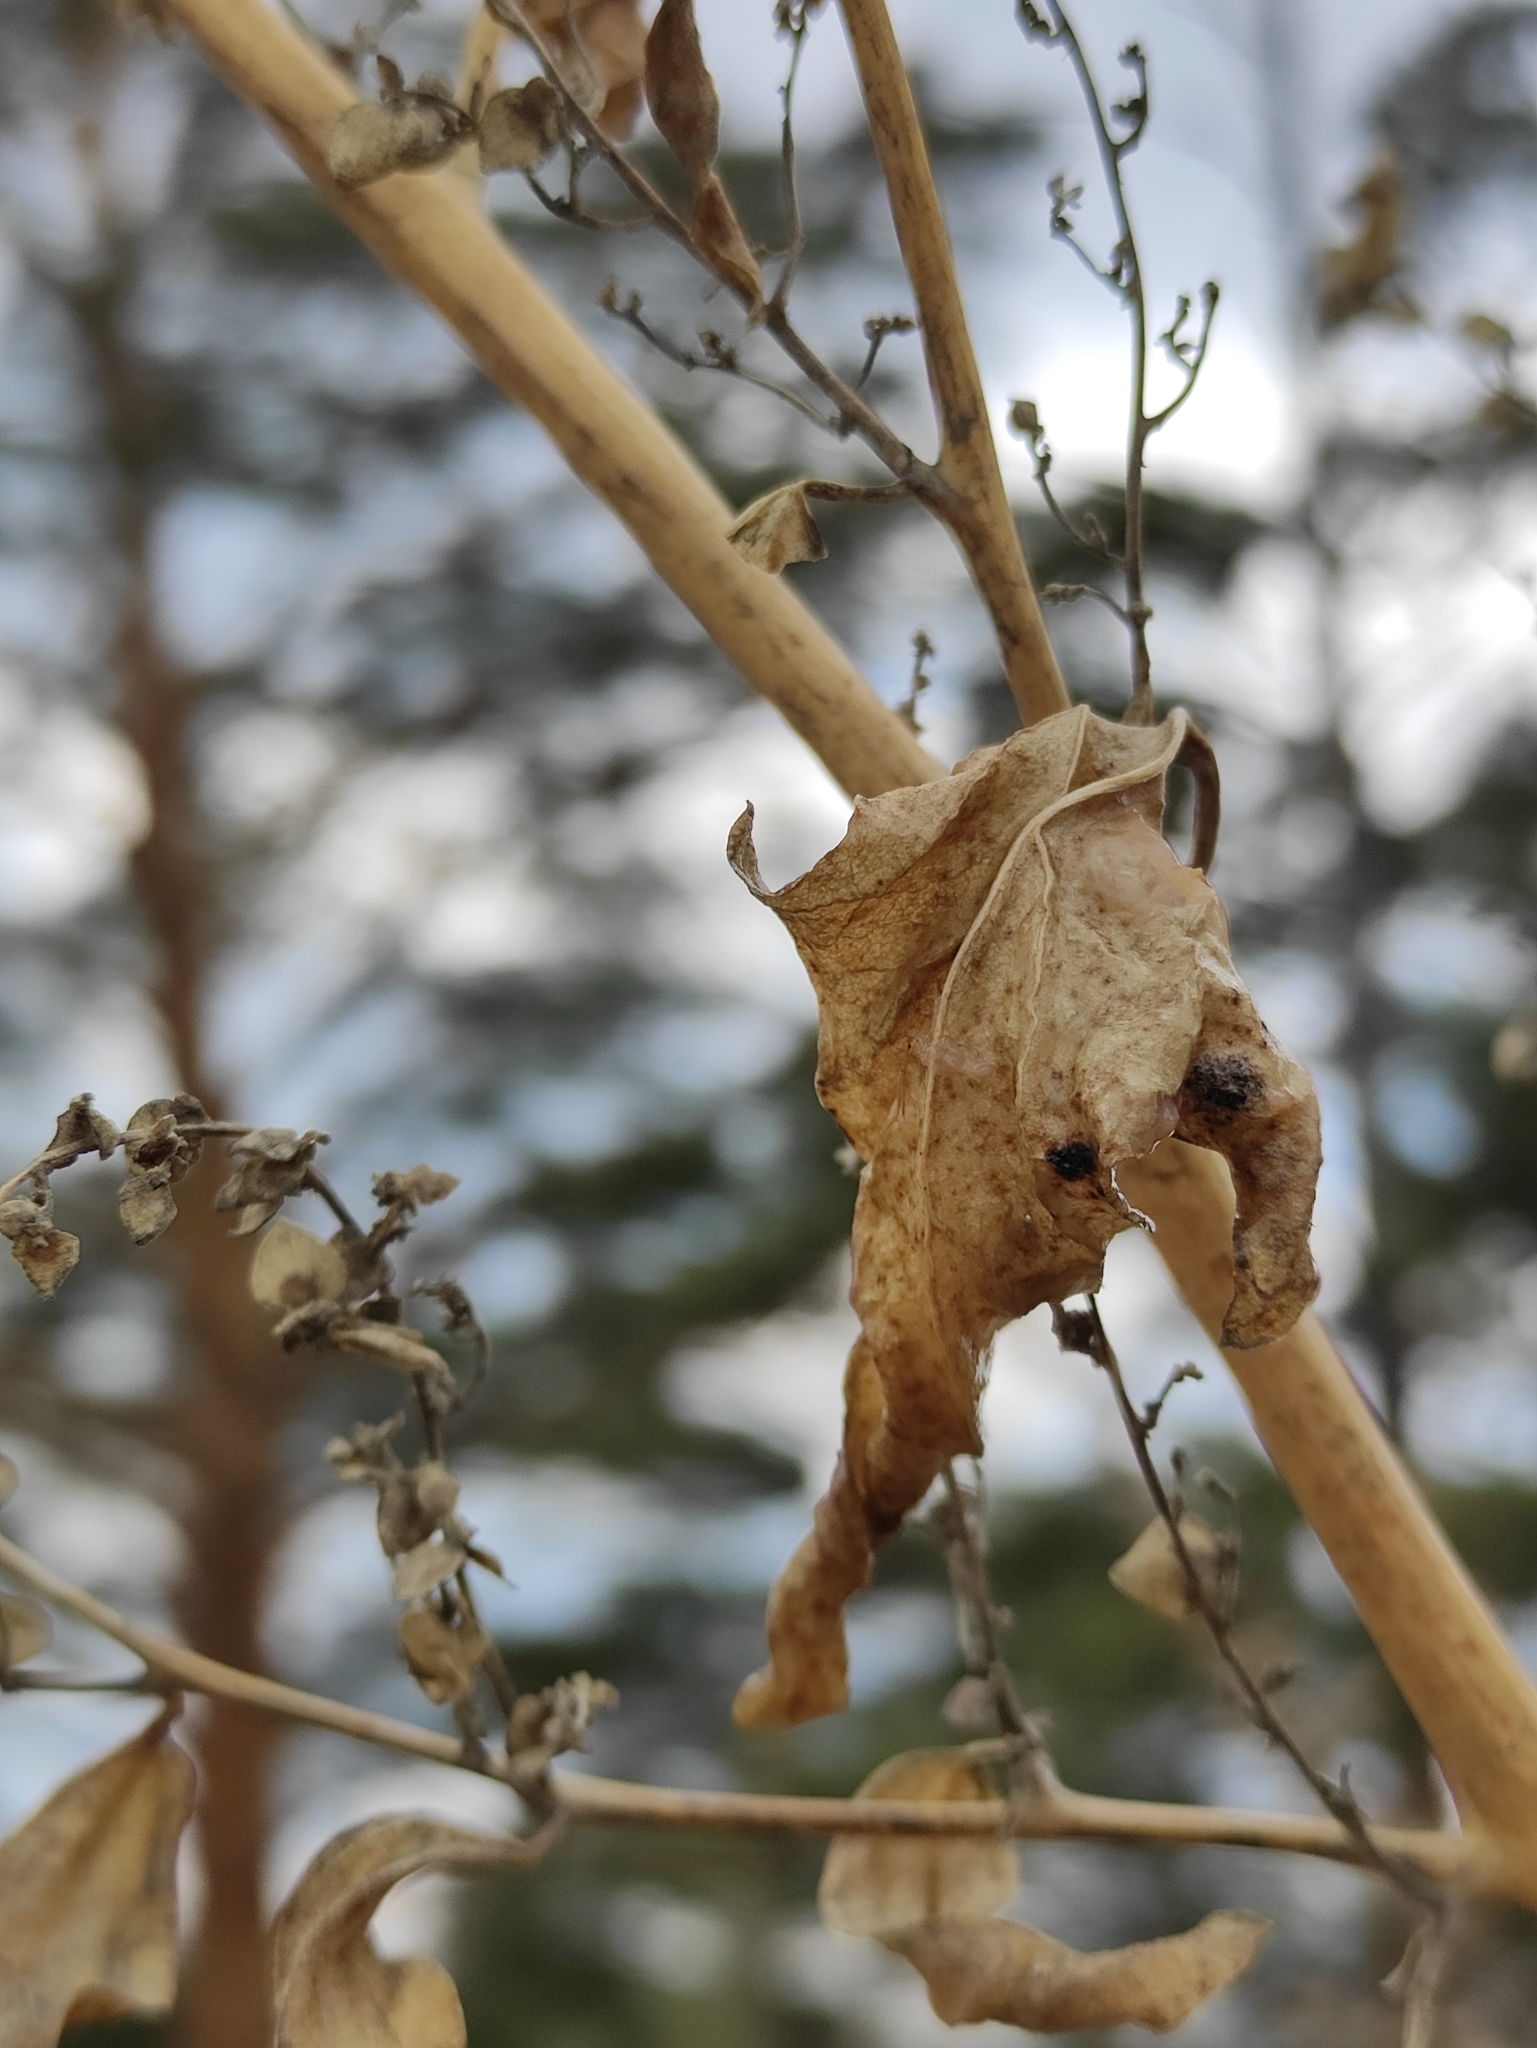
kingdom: Plantae
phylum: Tracheophyta
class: Magnoliopsida
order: Caryophyllales
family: Amaranthaceae
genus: Atriplex
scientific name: Atriplex sagittata
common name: Purple orache
